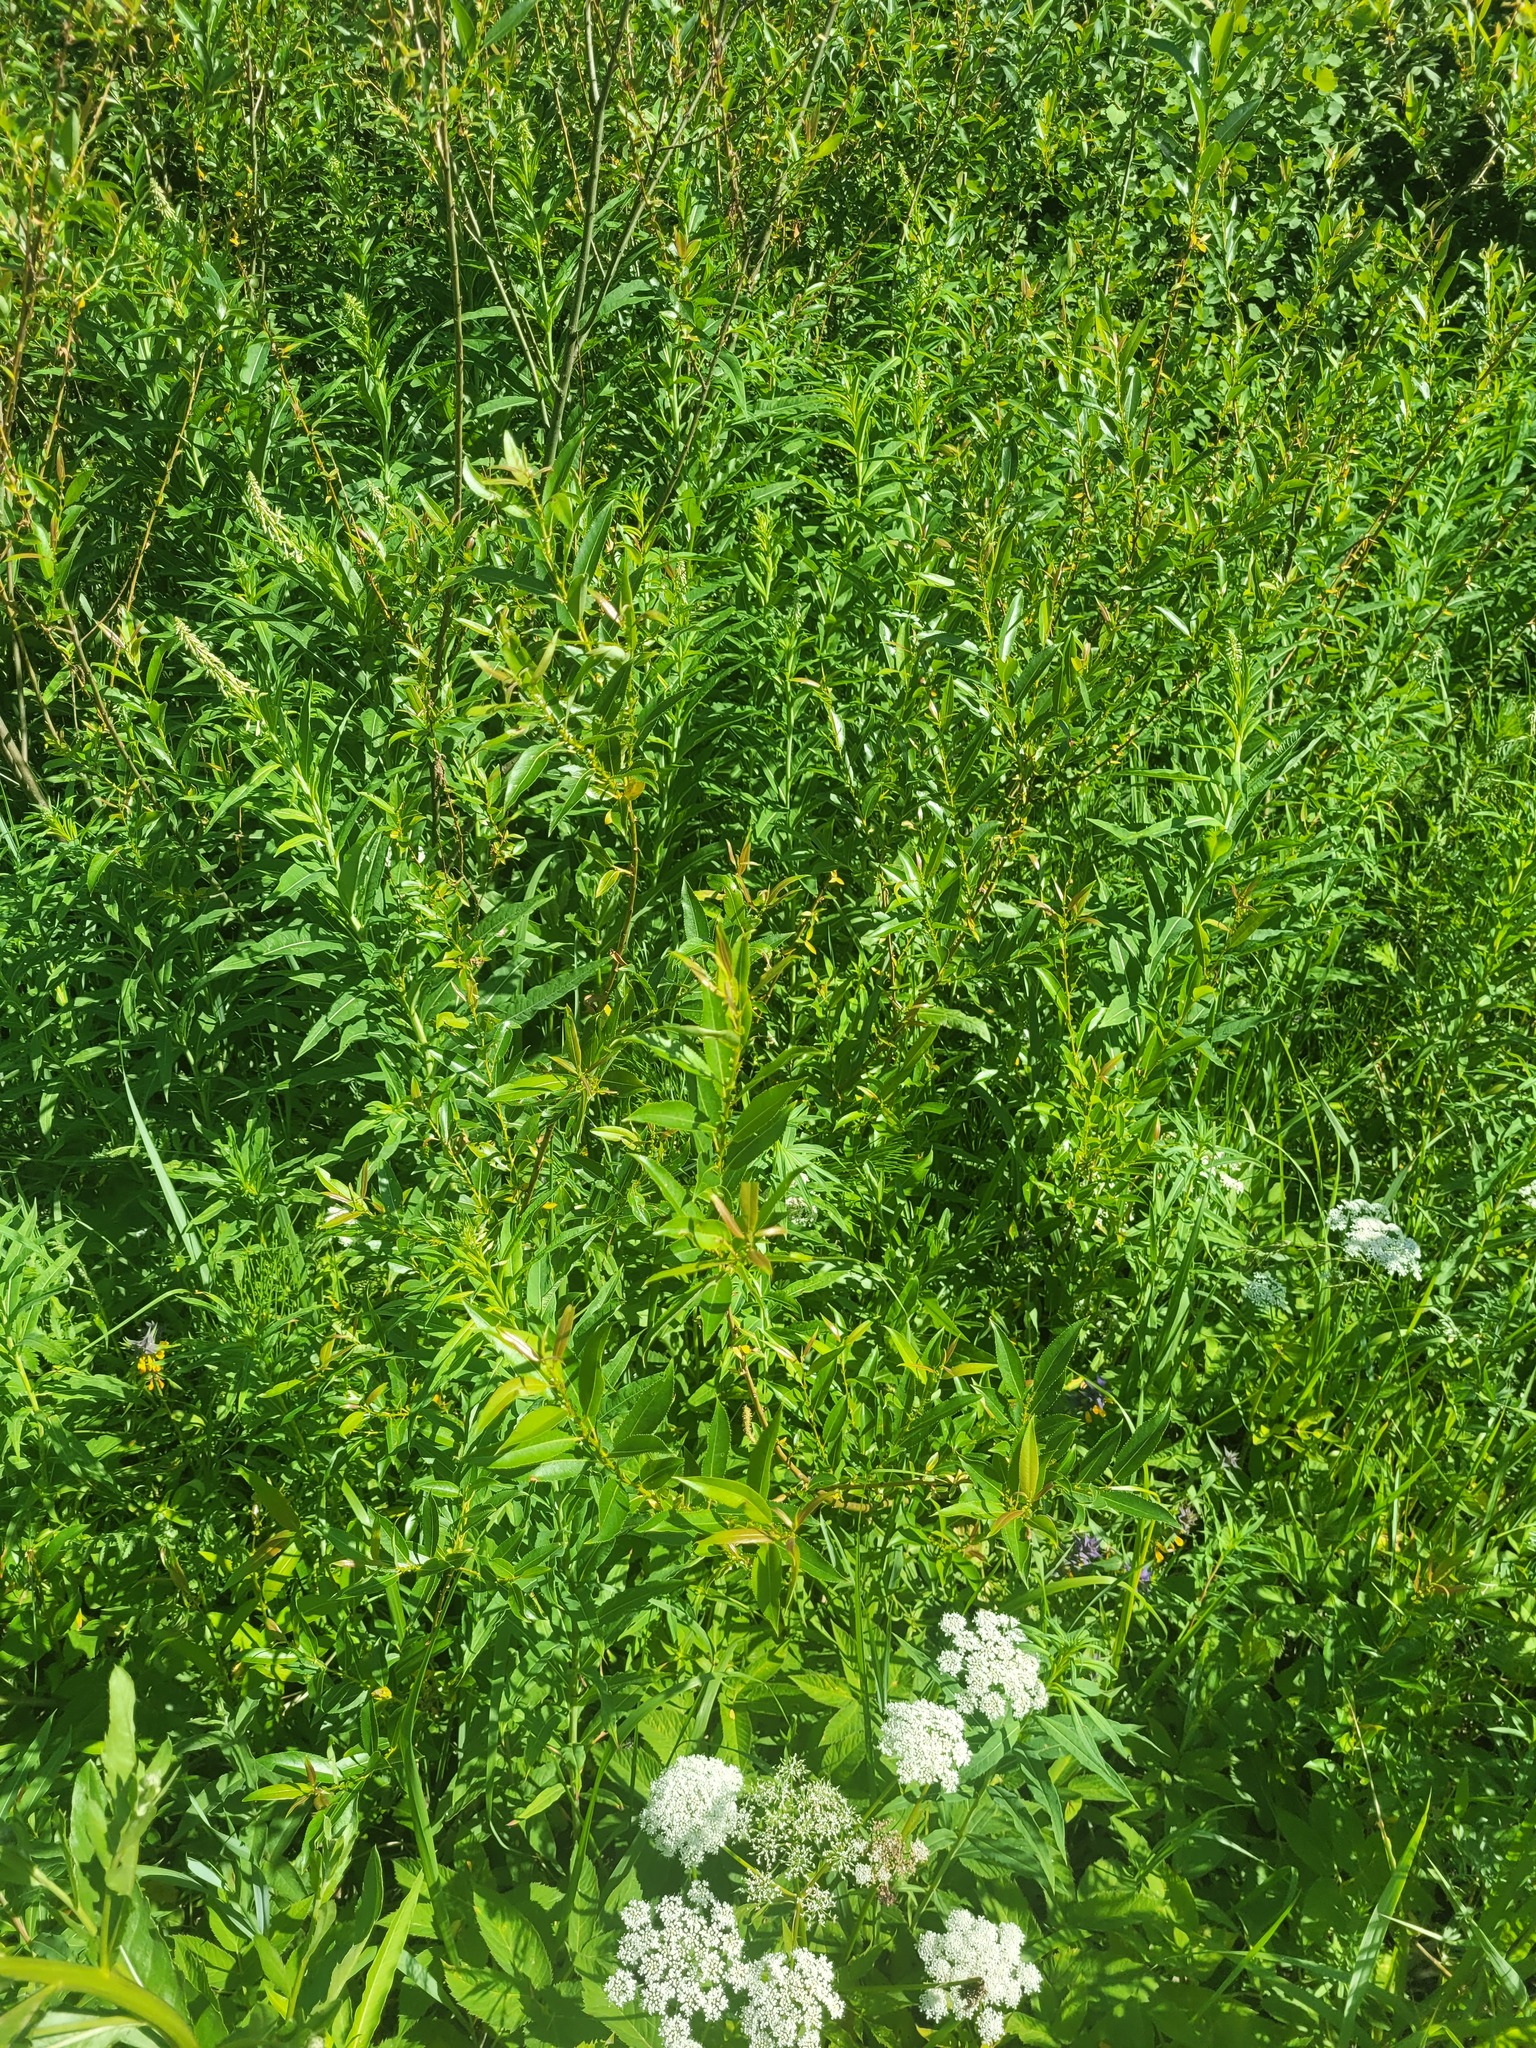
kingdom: Plantae
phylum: Tracheophyta
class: Magnoliopsida
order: Malpighiales
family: Salicaceae
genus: Salix
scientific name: Salix triandra
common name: Almond willow
